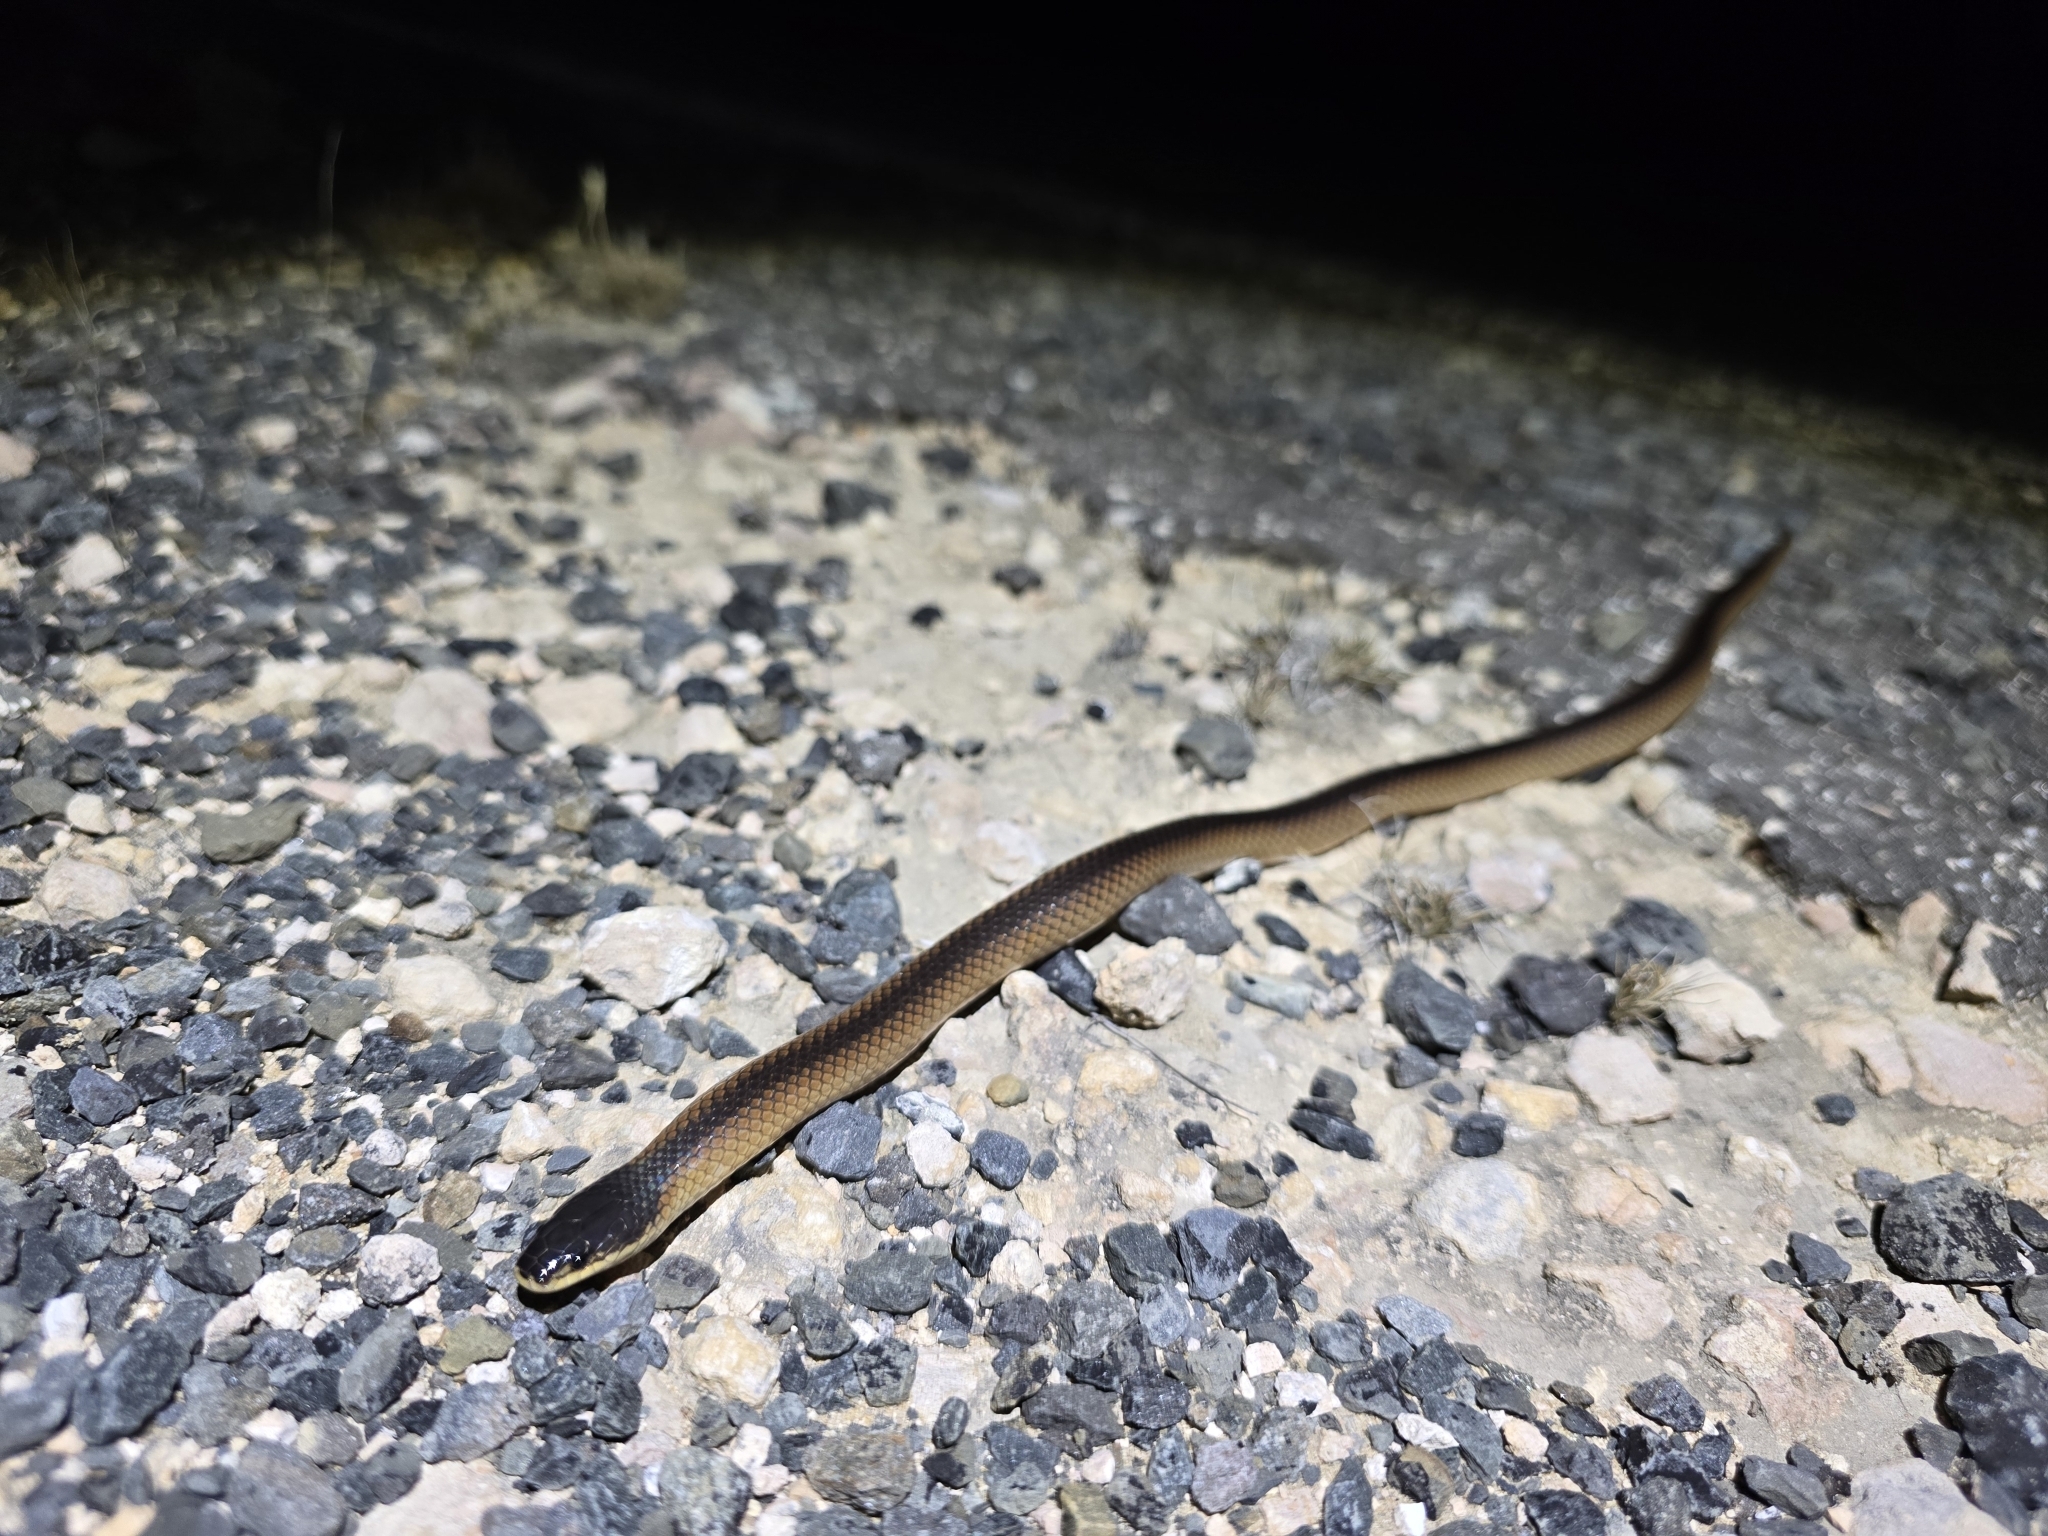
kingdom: Animalia
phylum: Chordata
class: Squamata
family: Elapidae
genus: Suta
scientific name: Suta nigriceps
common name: Mallee black-backed snake
